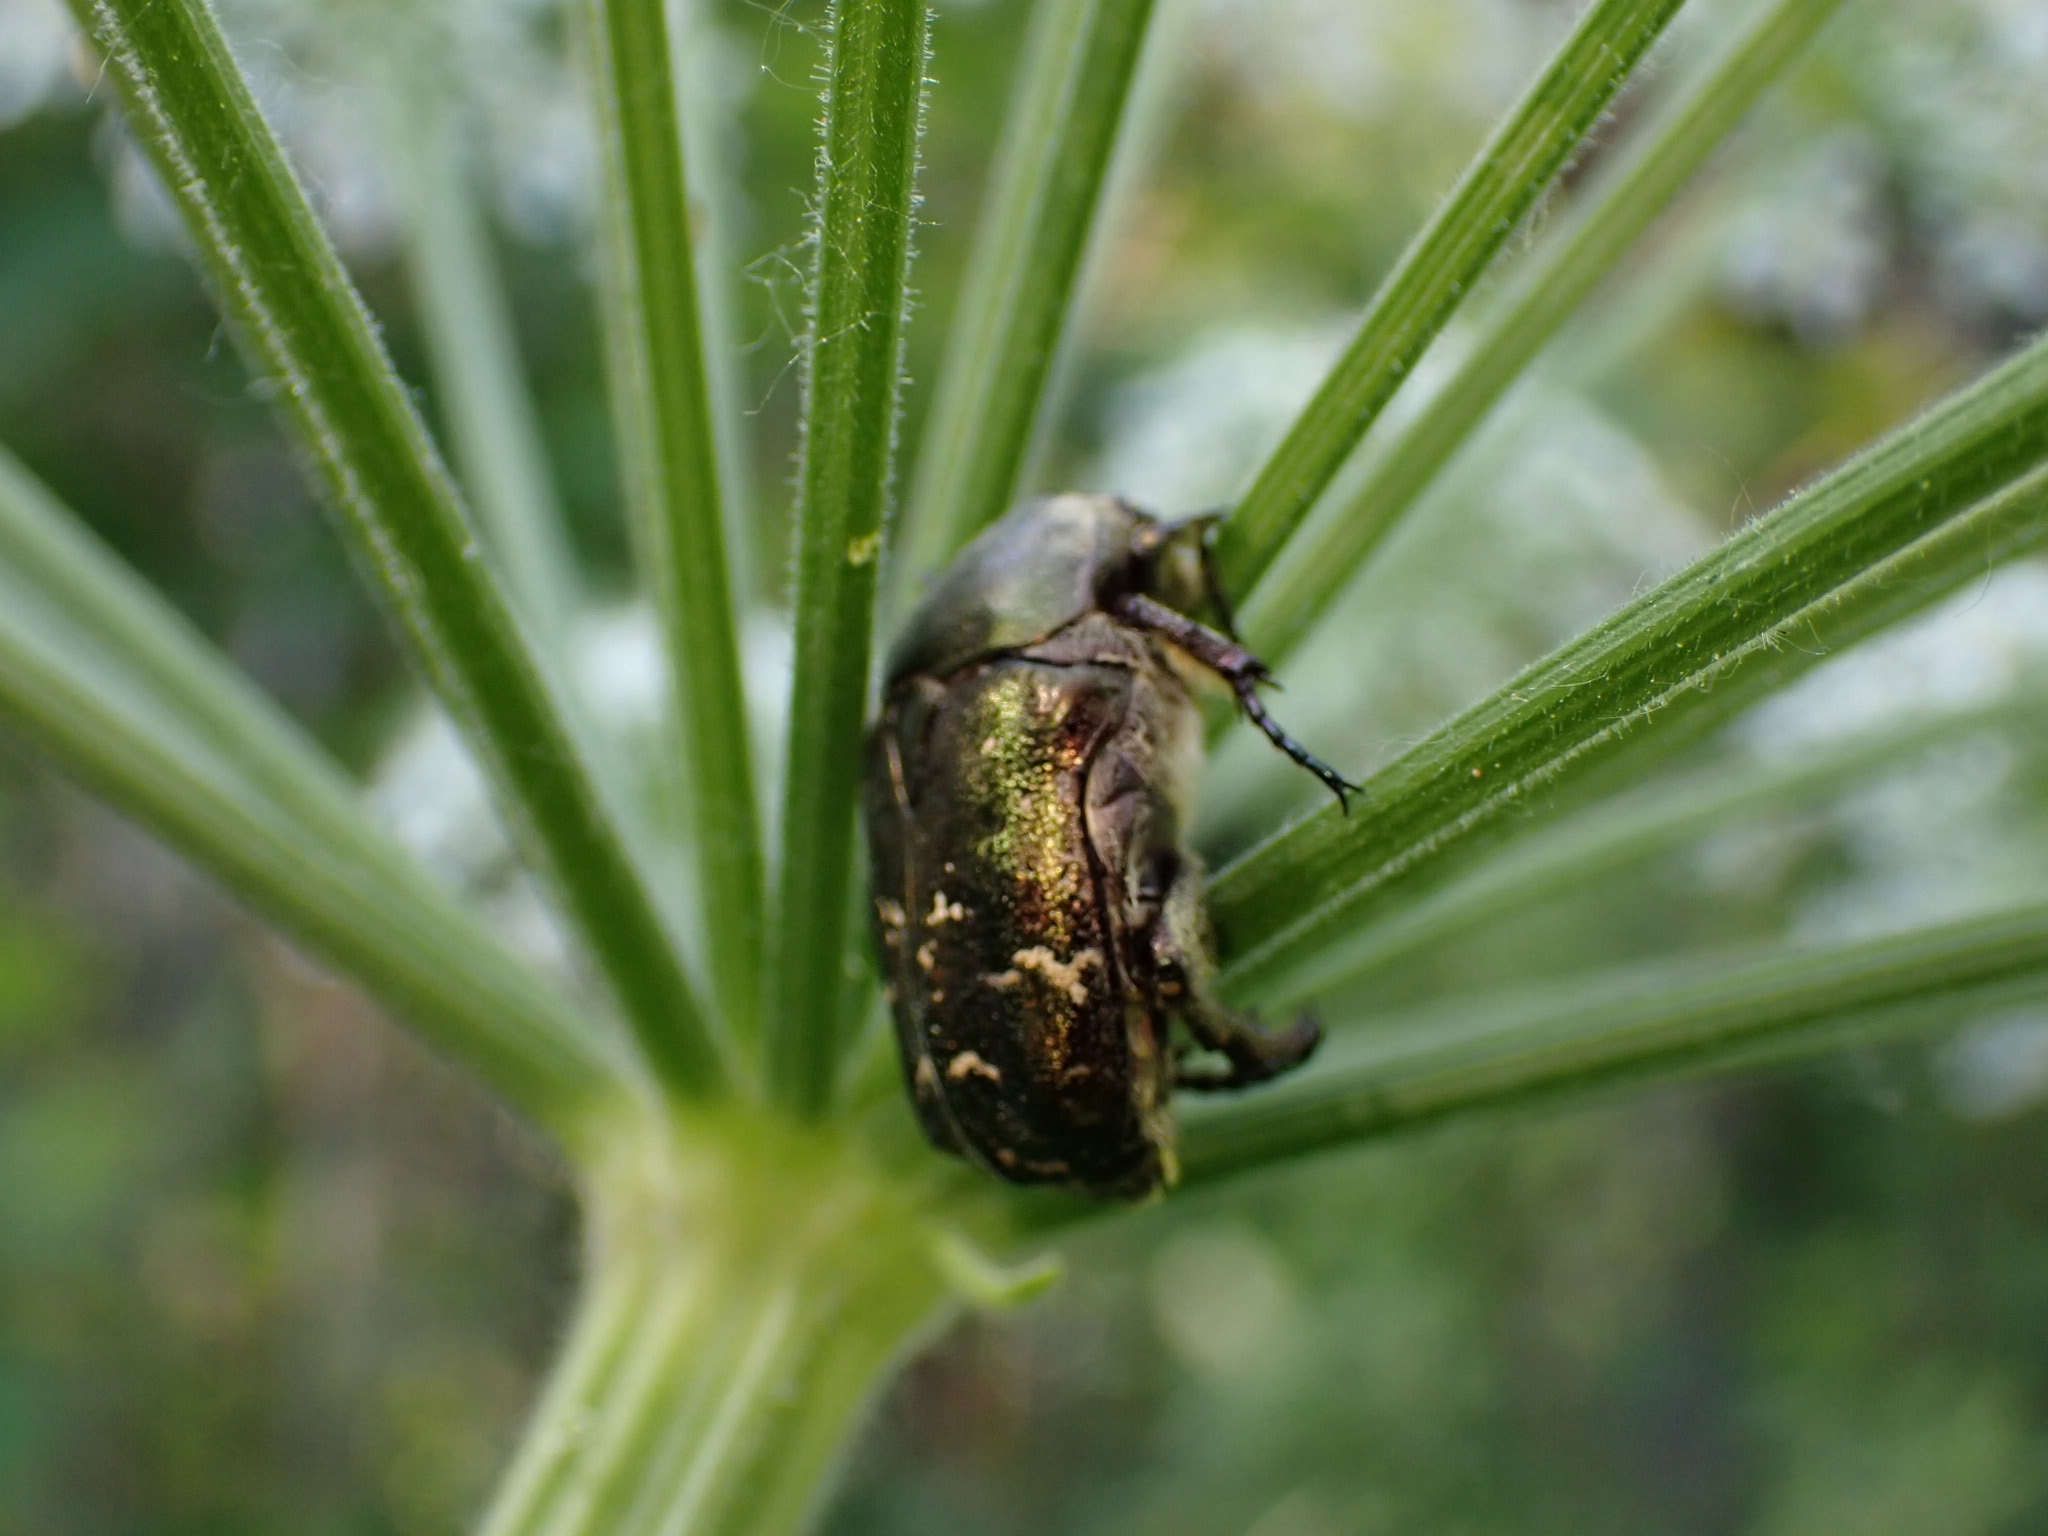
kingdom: Animalia
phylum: Arthropoda
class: Insecta
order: Coleoptera
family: Scarabaeidae
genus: Protaetia
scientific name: Protaetia cuprea
